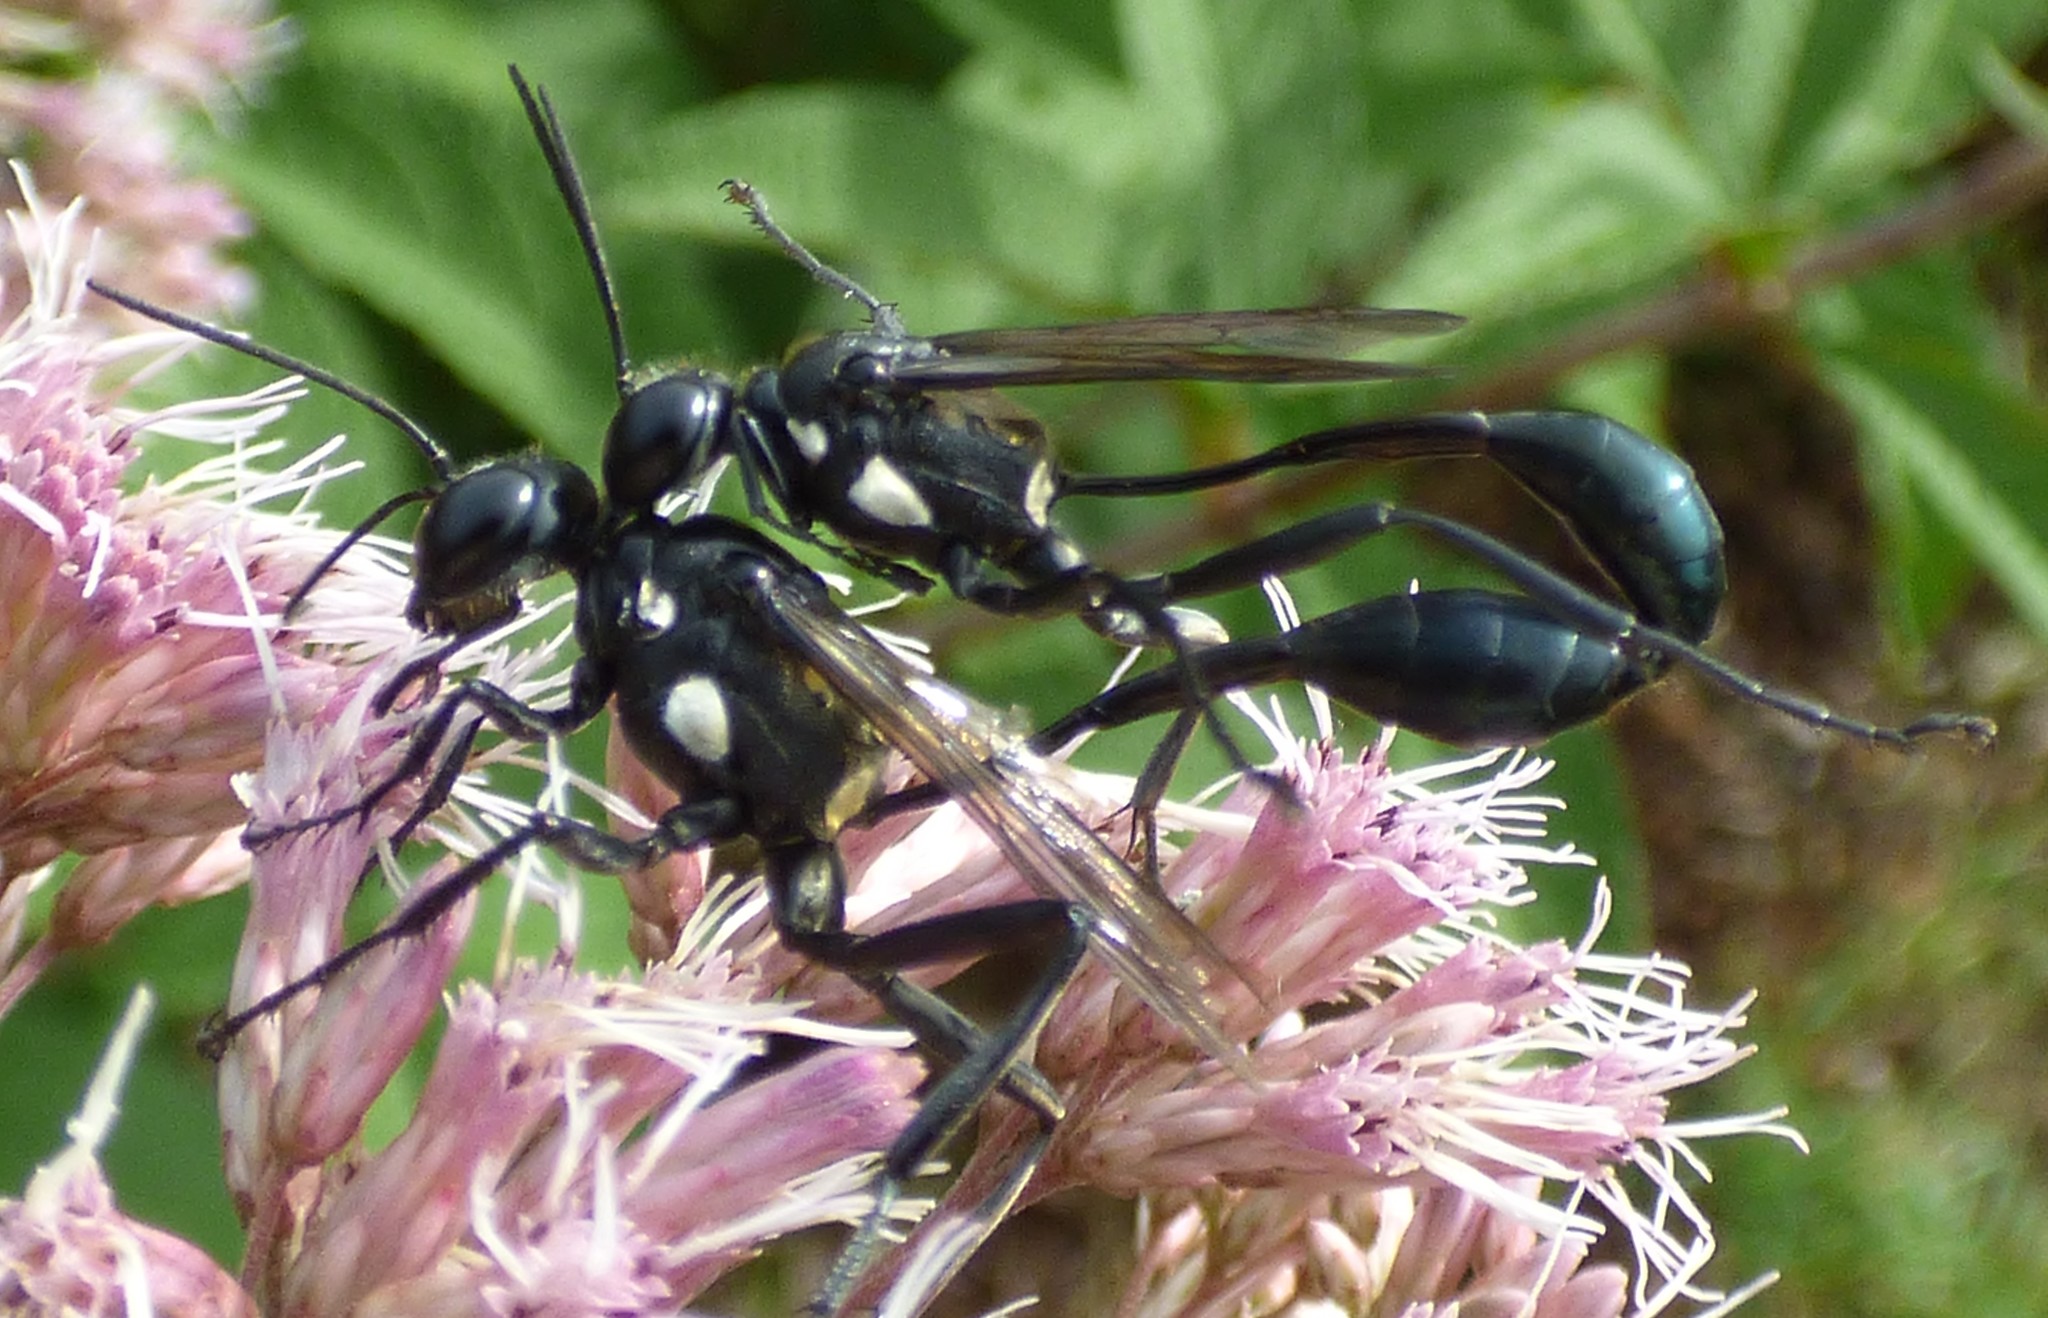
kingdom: Animalia
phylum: Arthropoda
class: Insecta
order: Hymenoptera
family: Sphecidae
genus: Eremnophila
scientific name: Eremnophila aureonotata
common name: Gold-marked thread-waisted wasp
